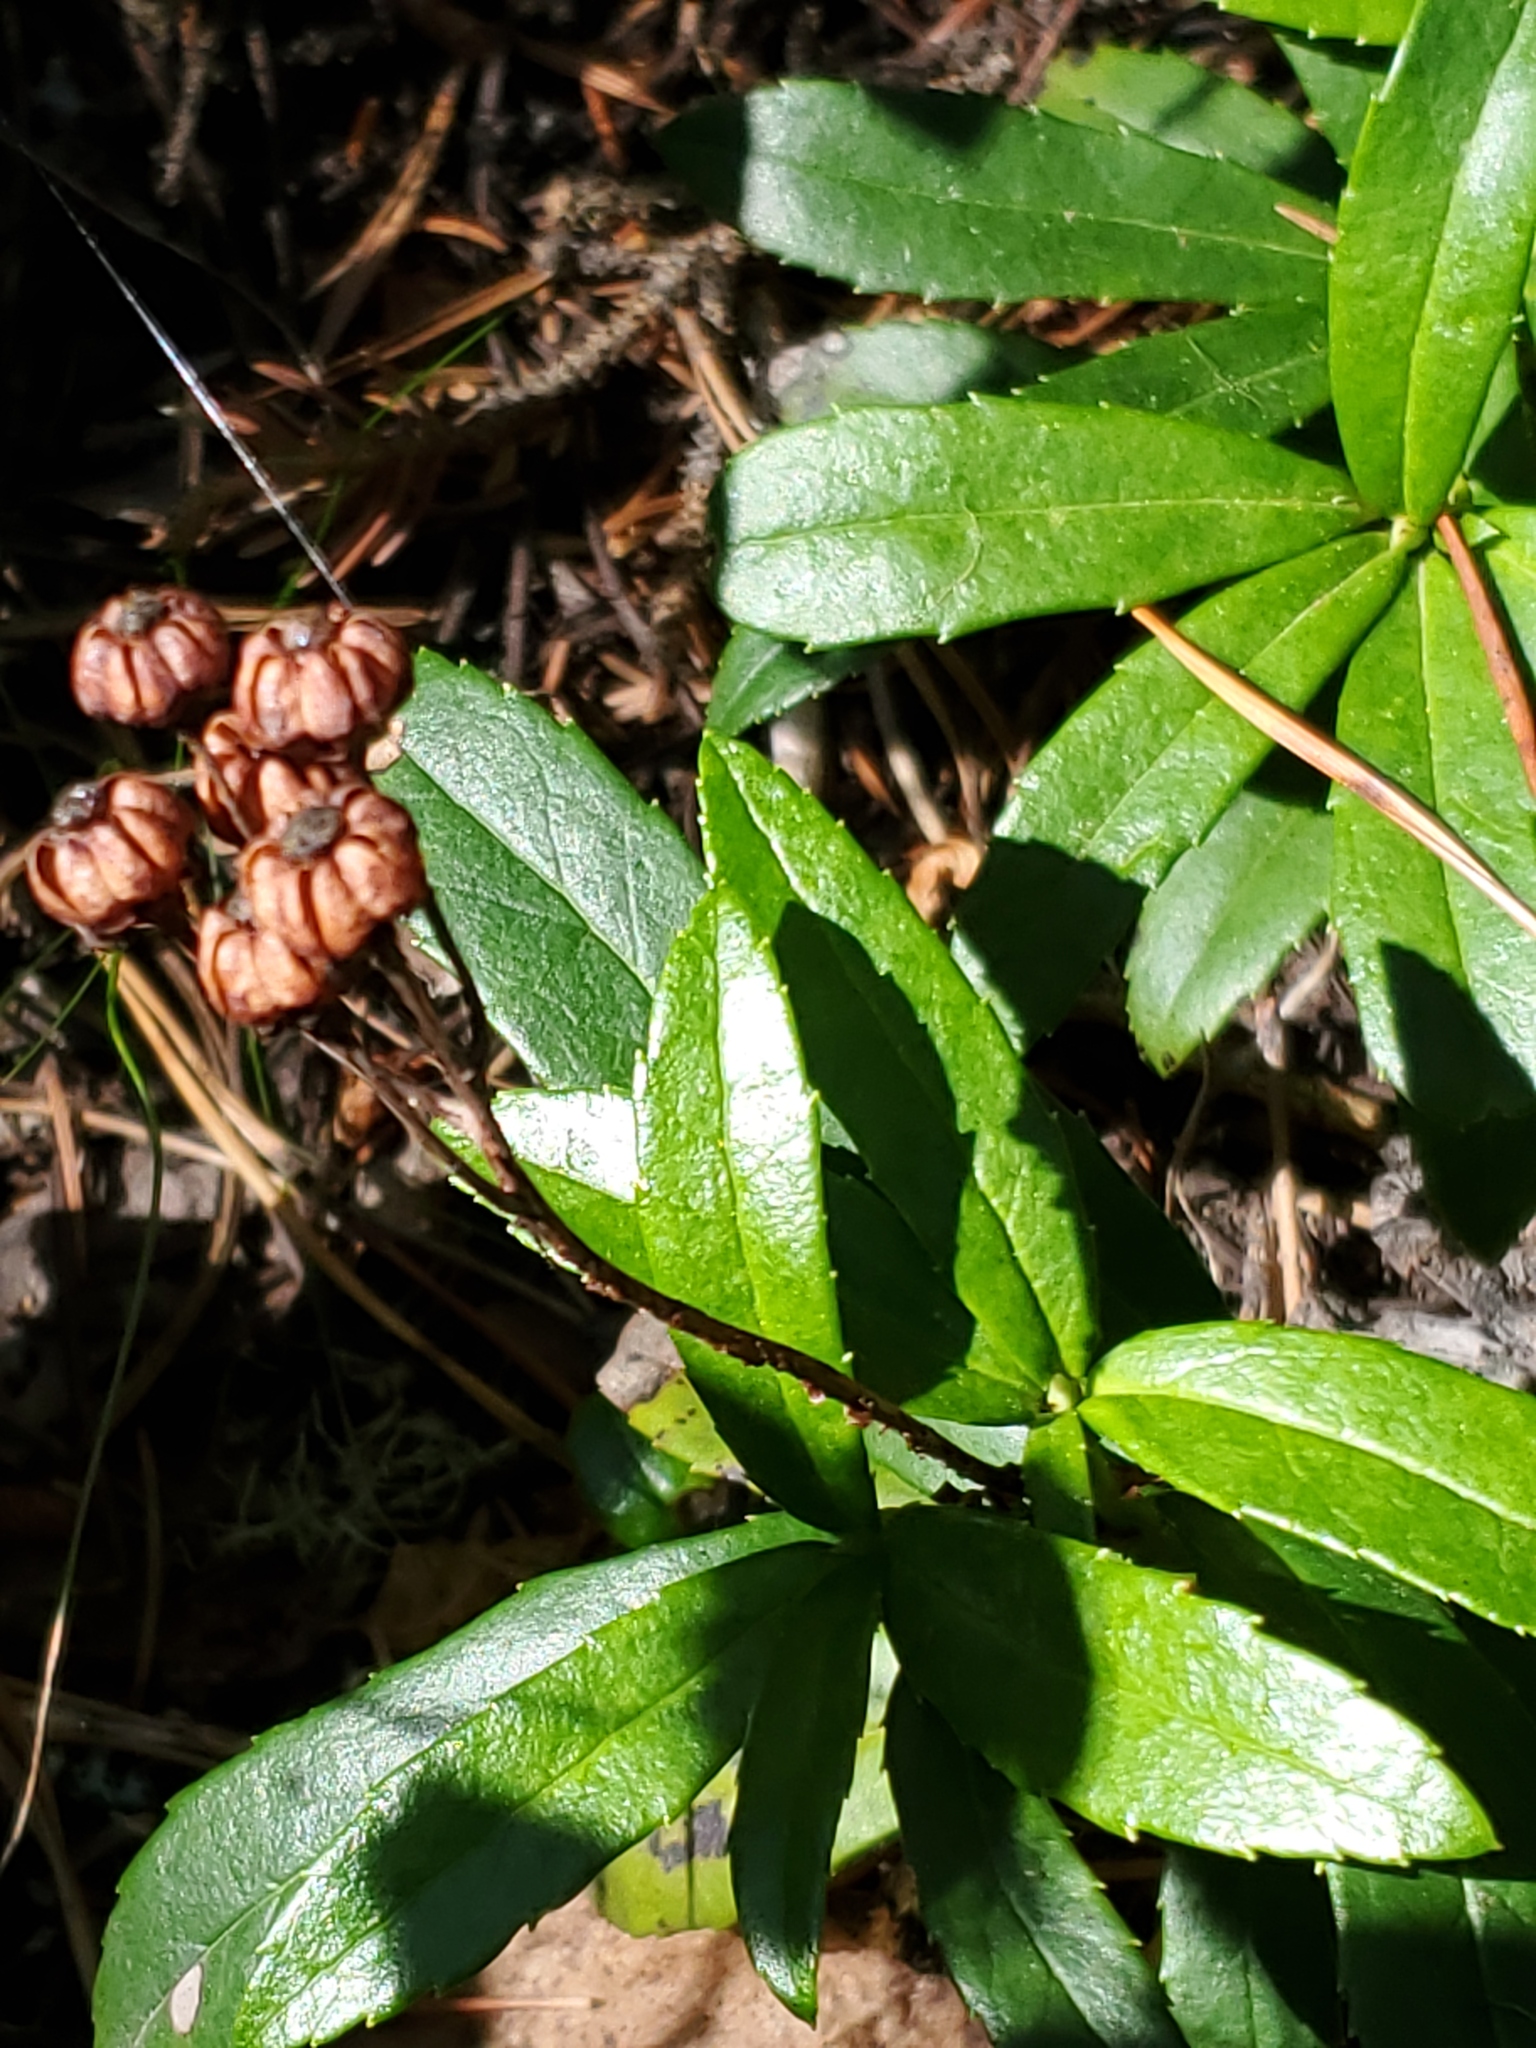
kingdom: Plantae
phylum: Tracheophyta
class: Magnoliopsida
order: Ericales
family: Ericaceae
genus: Chimaphila
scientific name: Chimaphila umbellata
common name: Pipsissewa
